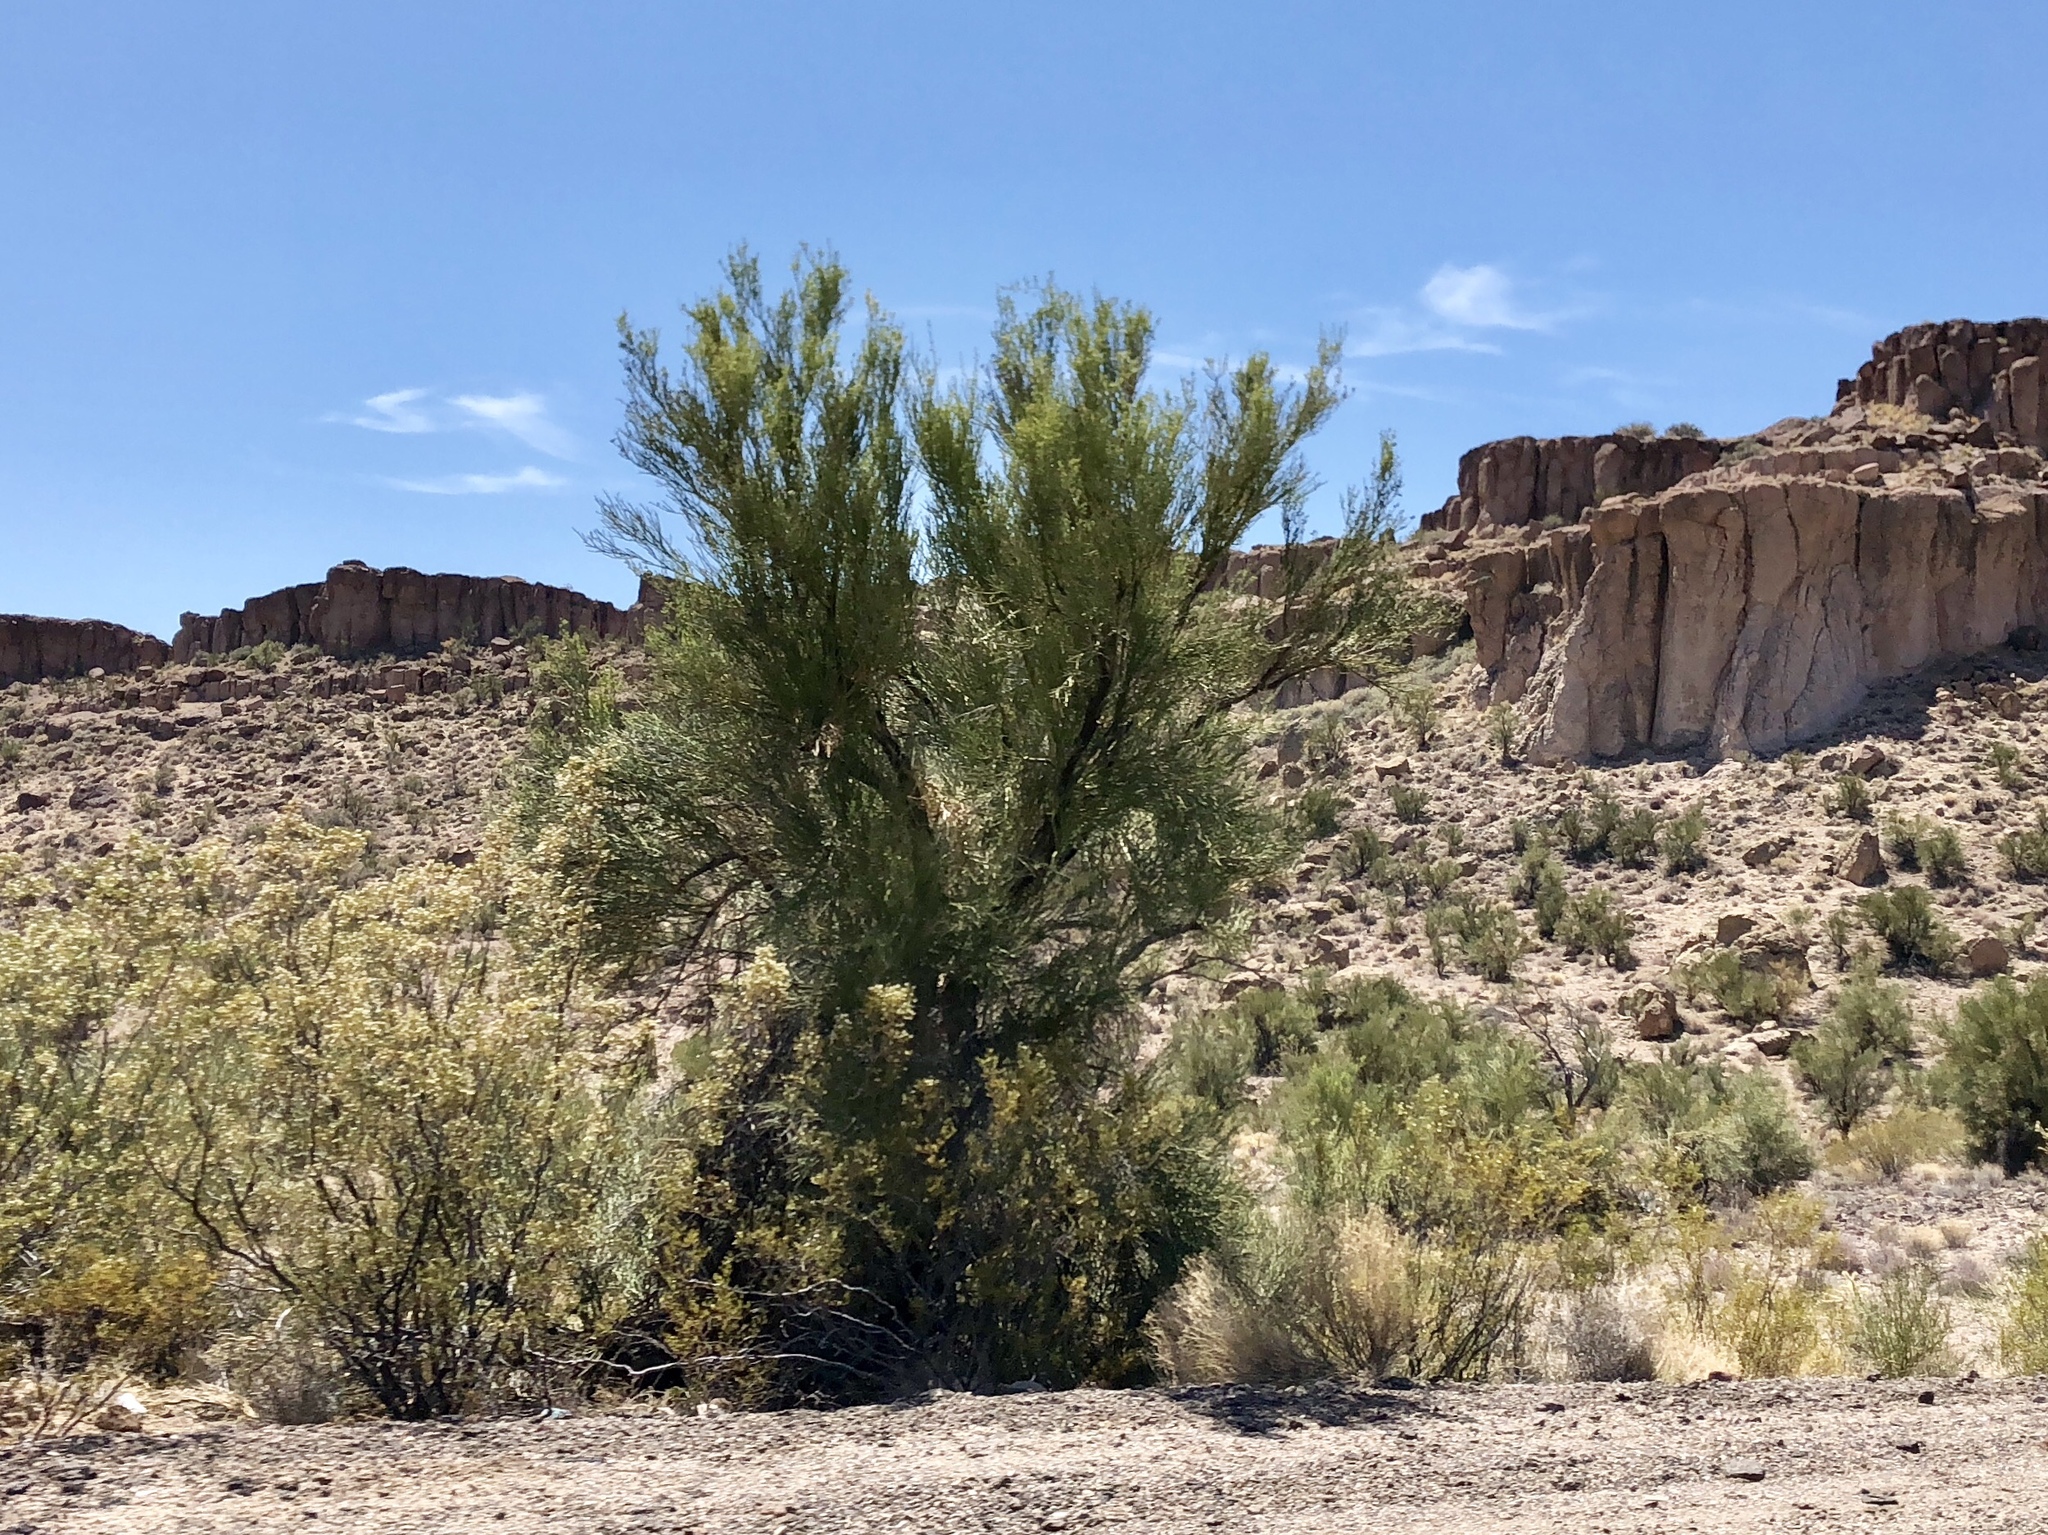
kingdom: Plantae
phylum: Tracheophyta
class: Magnoliopsida
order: Celastrales
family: Celastraceae
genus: Canotia
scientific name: Canotia holacantha
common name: Crucifixion thorns
